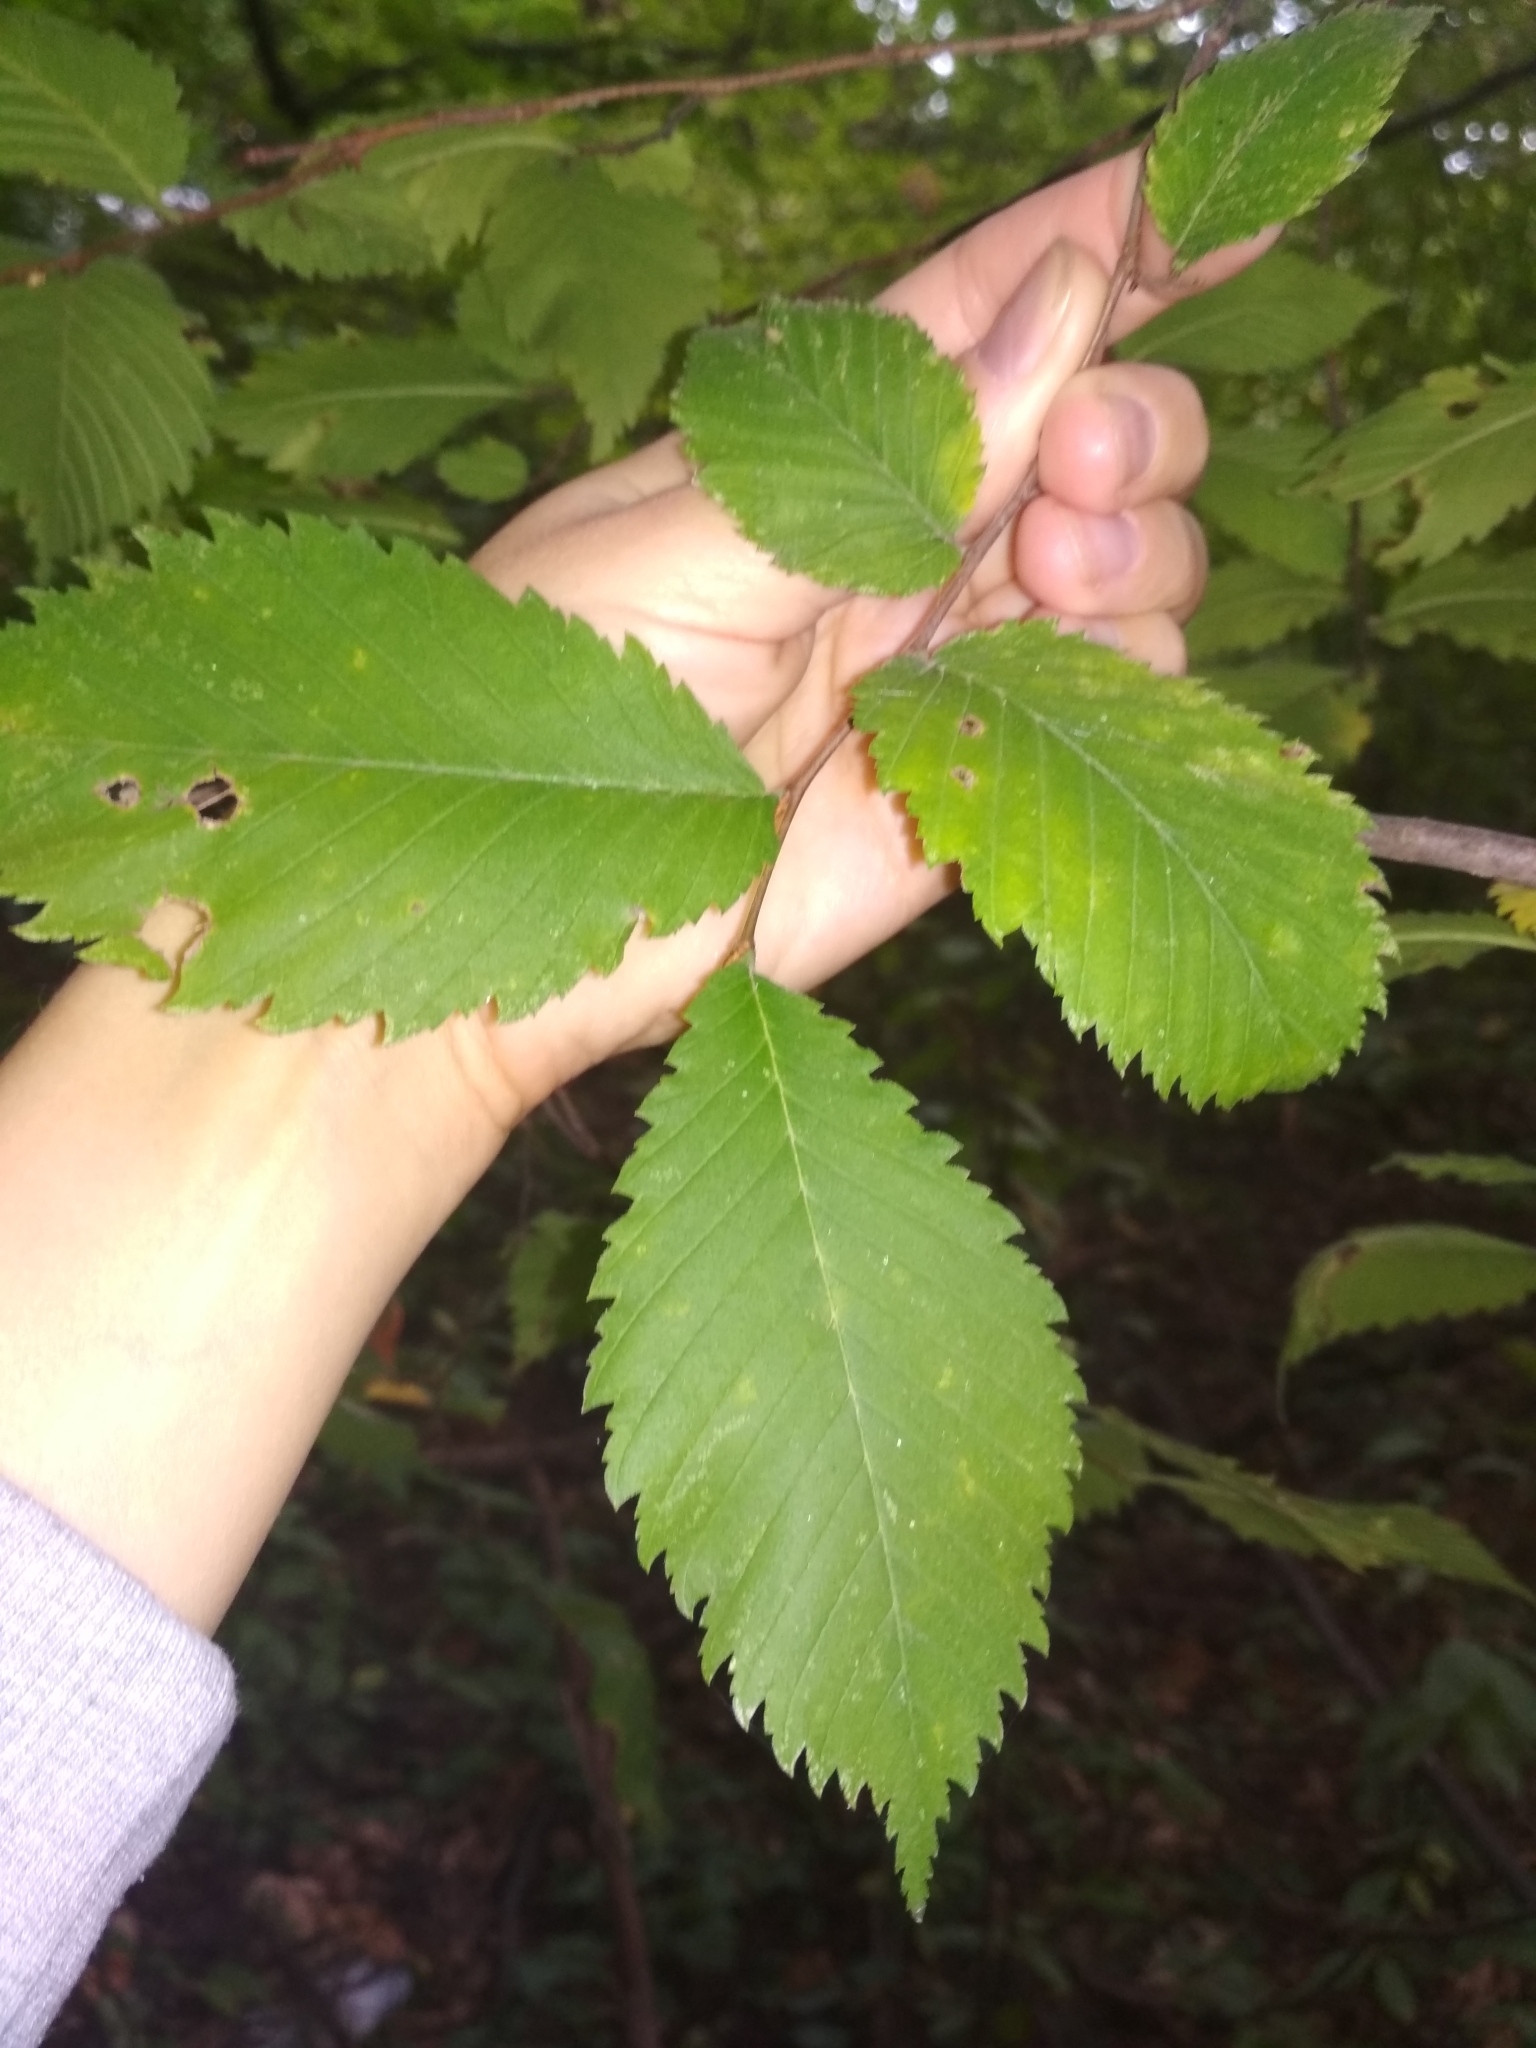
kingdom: Plantae
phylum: Tracheophyta
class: Magnoliopsida
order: Rosales
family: Ulmaceae
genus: Ulmus
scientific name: Ulmus glabra
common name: Wych elm
